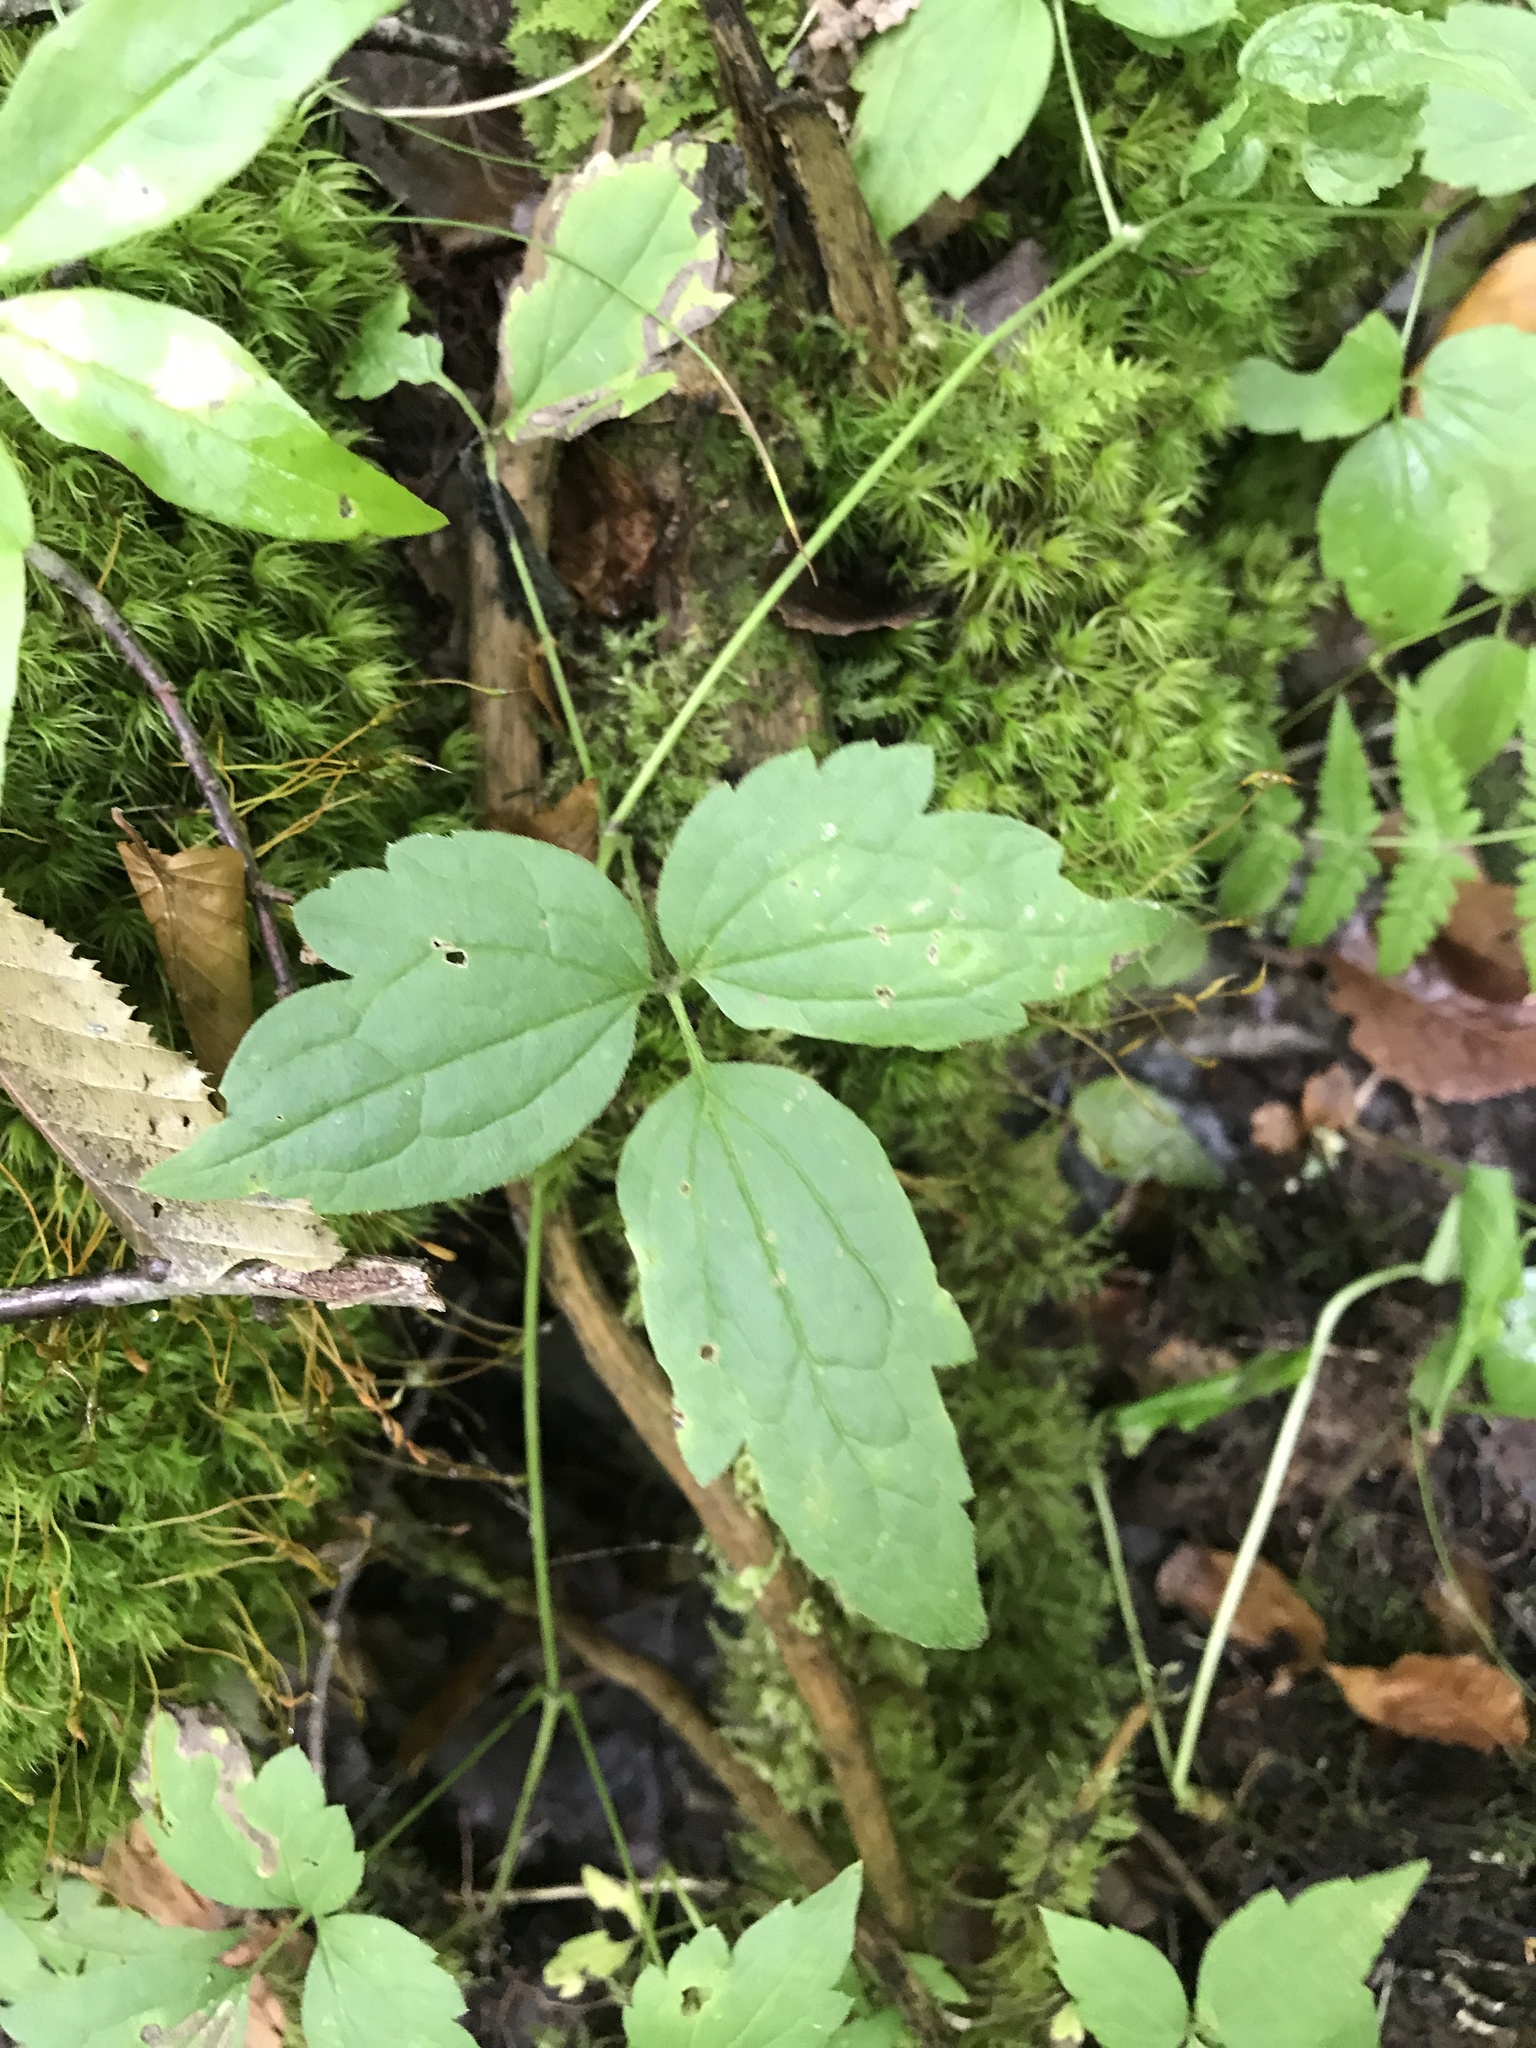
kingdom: Plantae
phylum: Tracheophyta
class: Magnoliopsida
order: Ranunculales
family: Ranunculaceae
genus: Clematis
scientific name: Clematis virginiana
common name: Virgin's-bower
